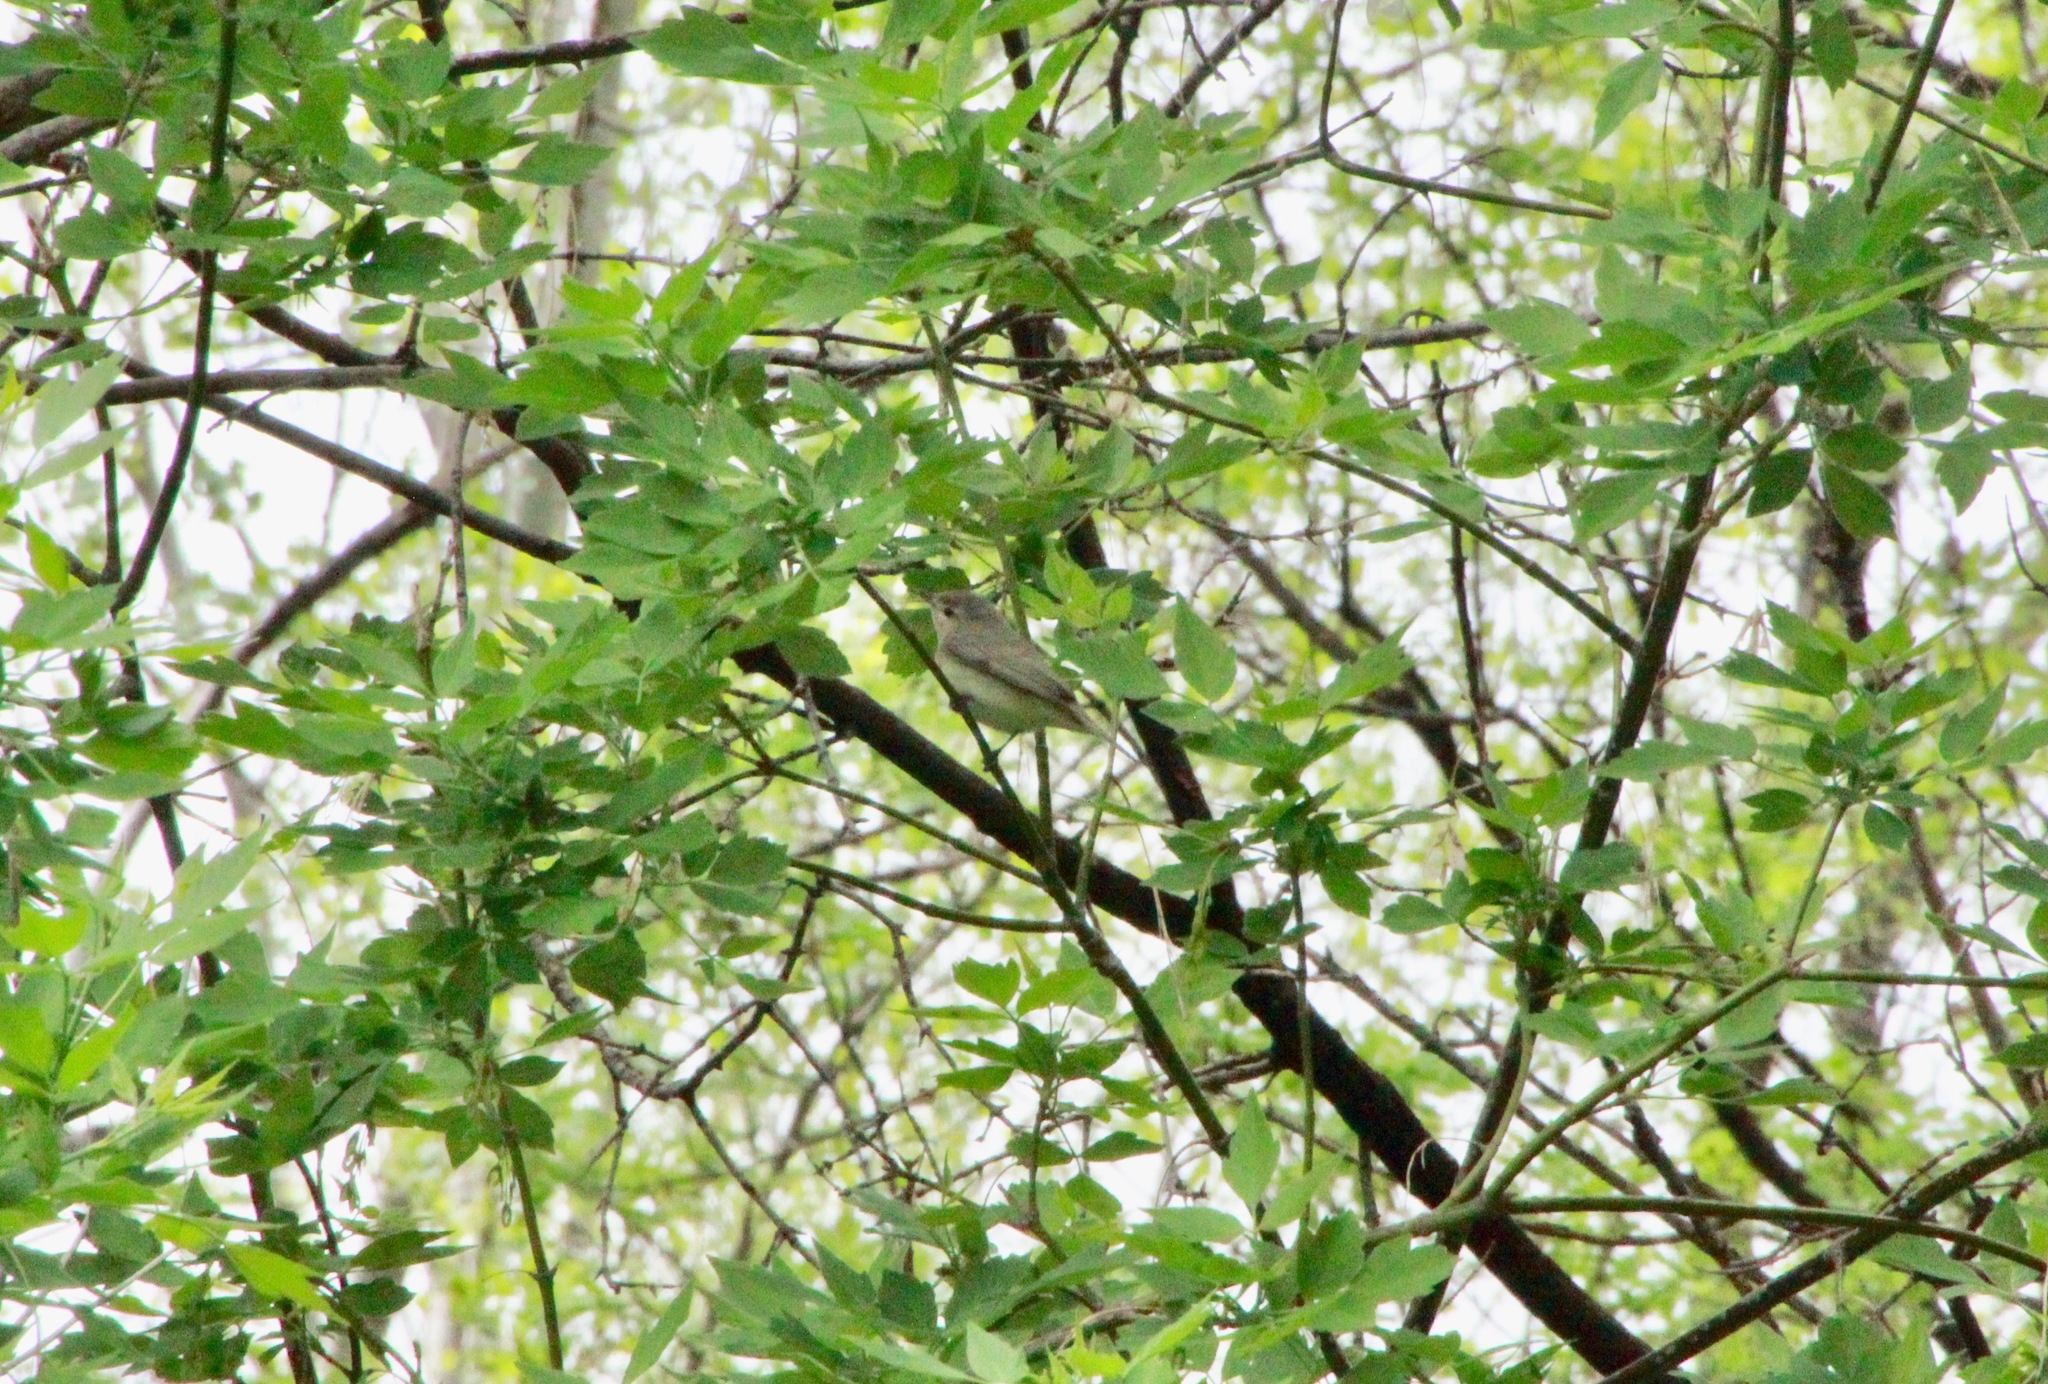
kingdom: Animalia
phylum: Chordata
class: Aves
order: Passeriformes
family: Vireonidae
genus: Vireo
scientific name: Vireo gilvus
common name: Warbling vireo
